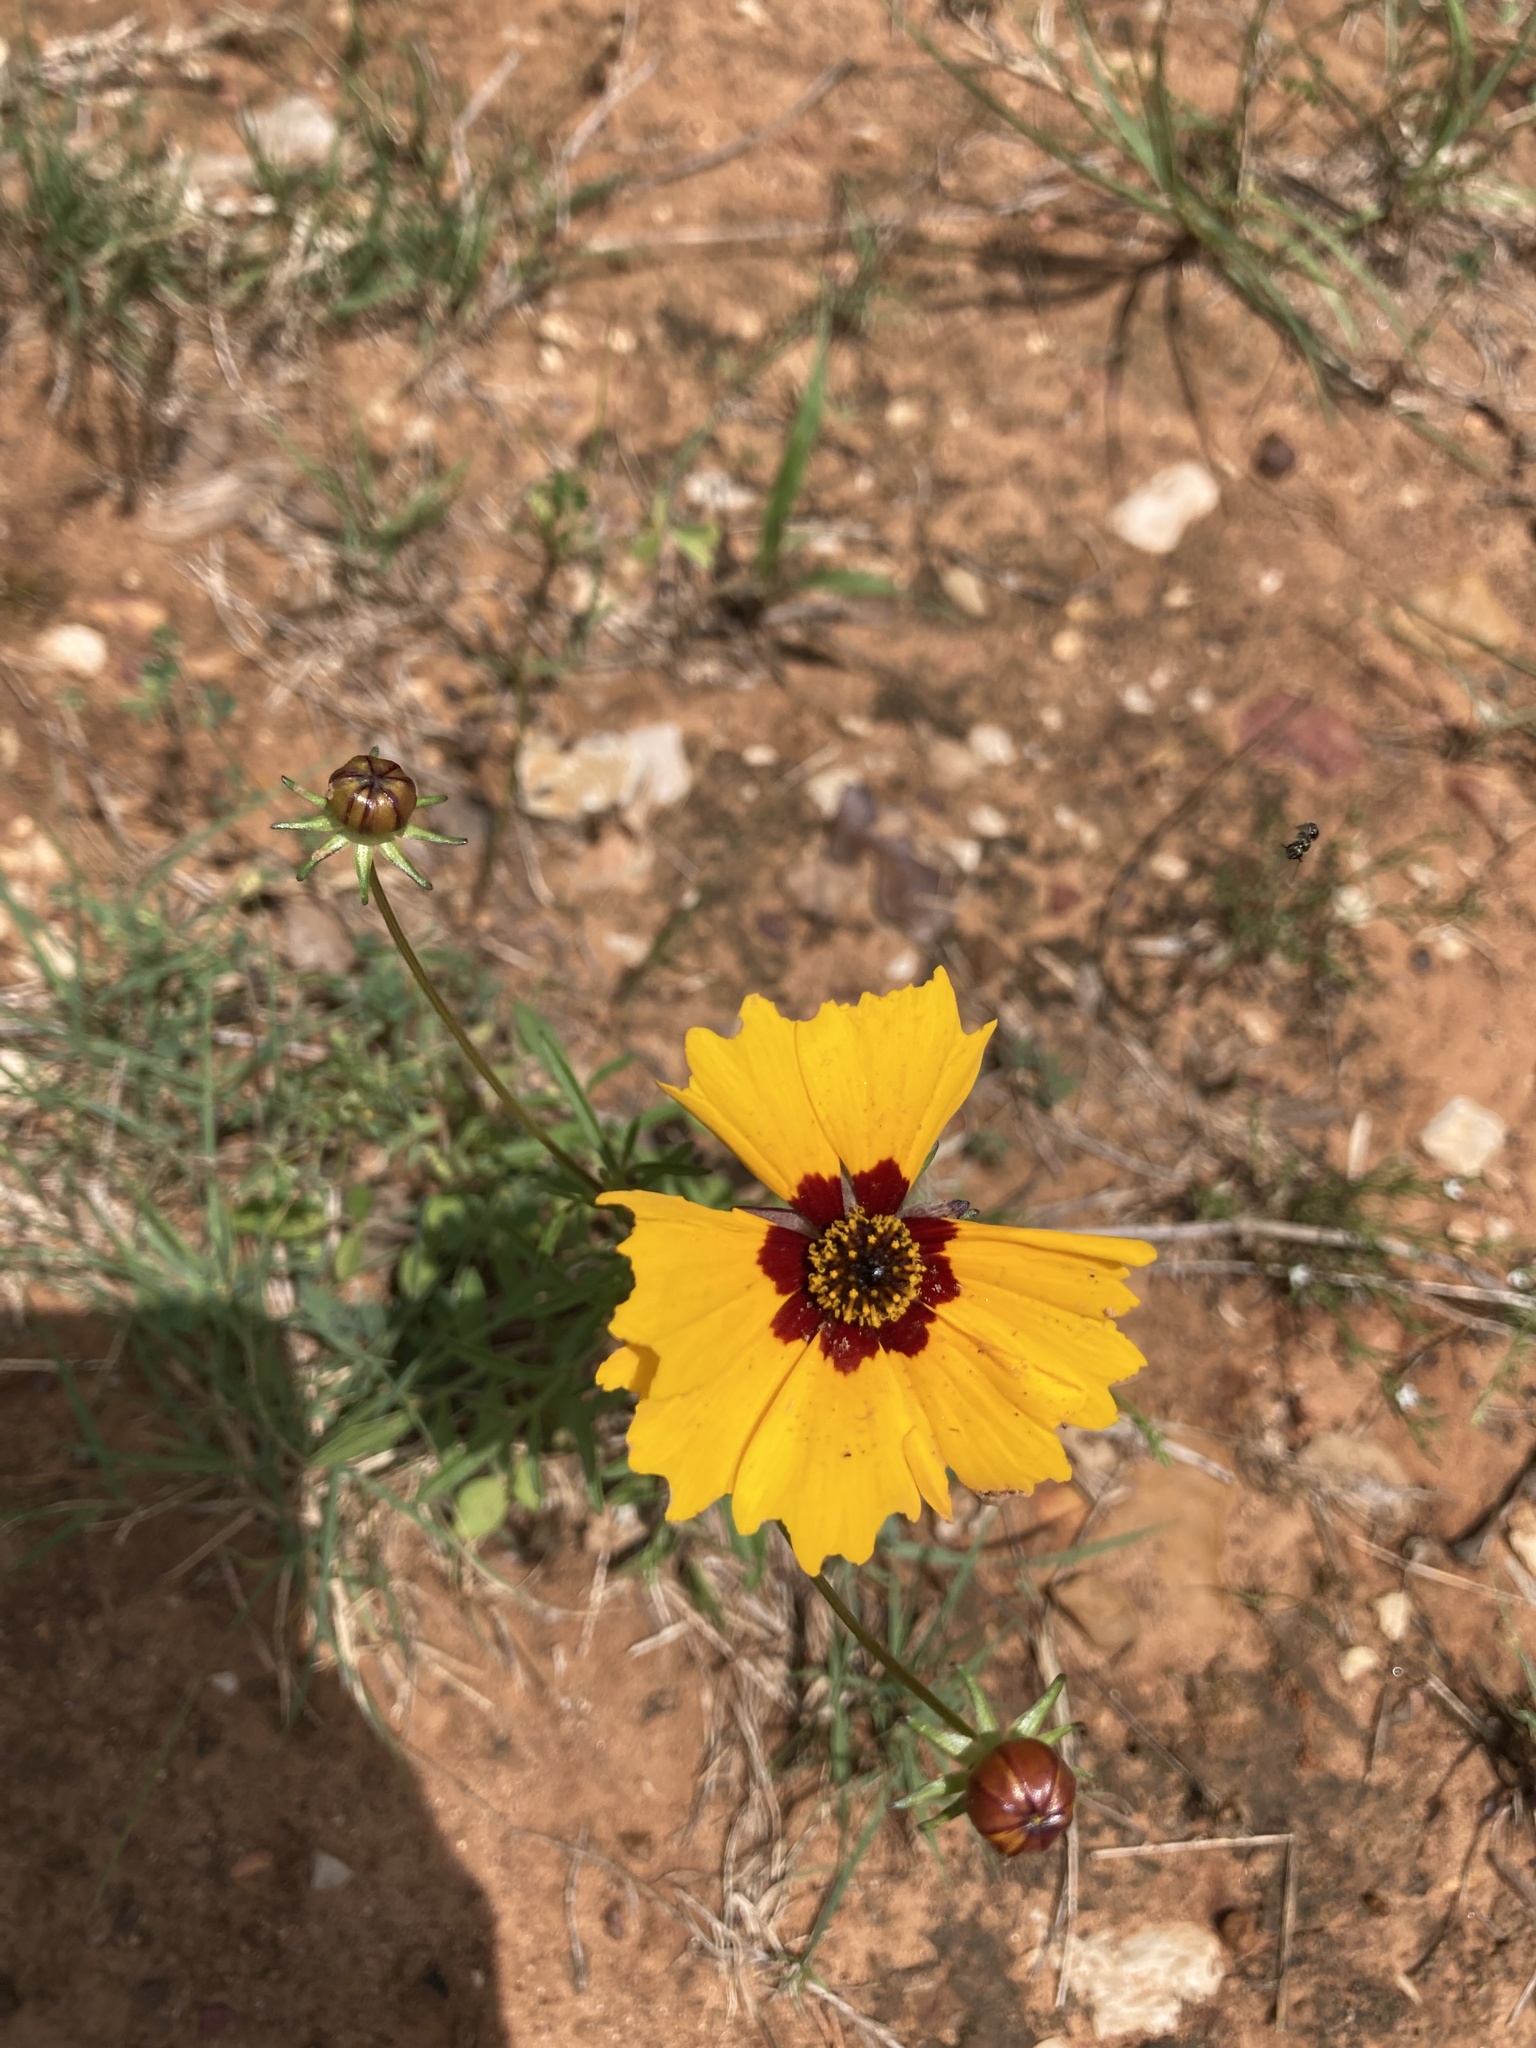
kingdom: Plantae
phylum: Tracheophyta
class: Magnoliopsida
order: Asterales
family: Asteraceae
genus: Coreopsis
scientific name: Coreopsis basalis
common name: Golden-mane coreopsis
